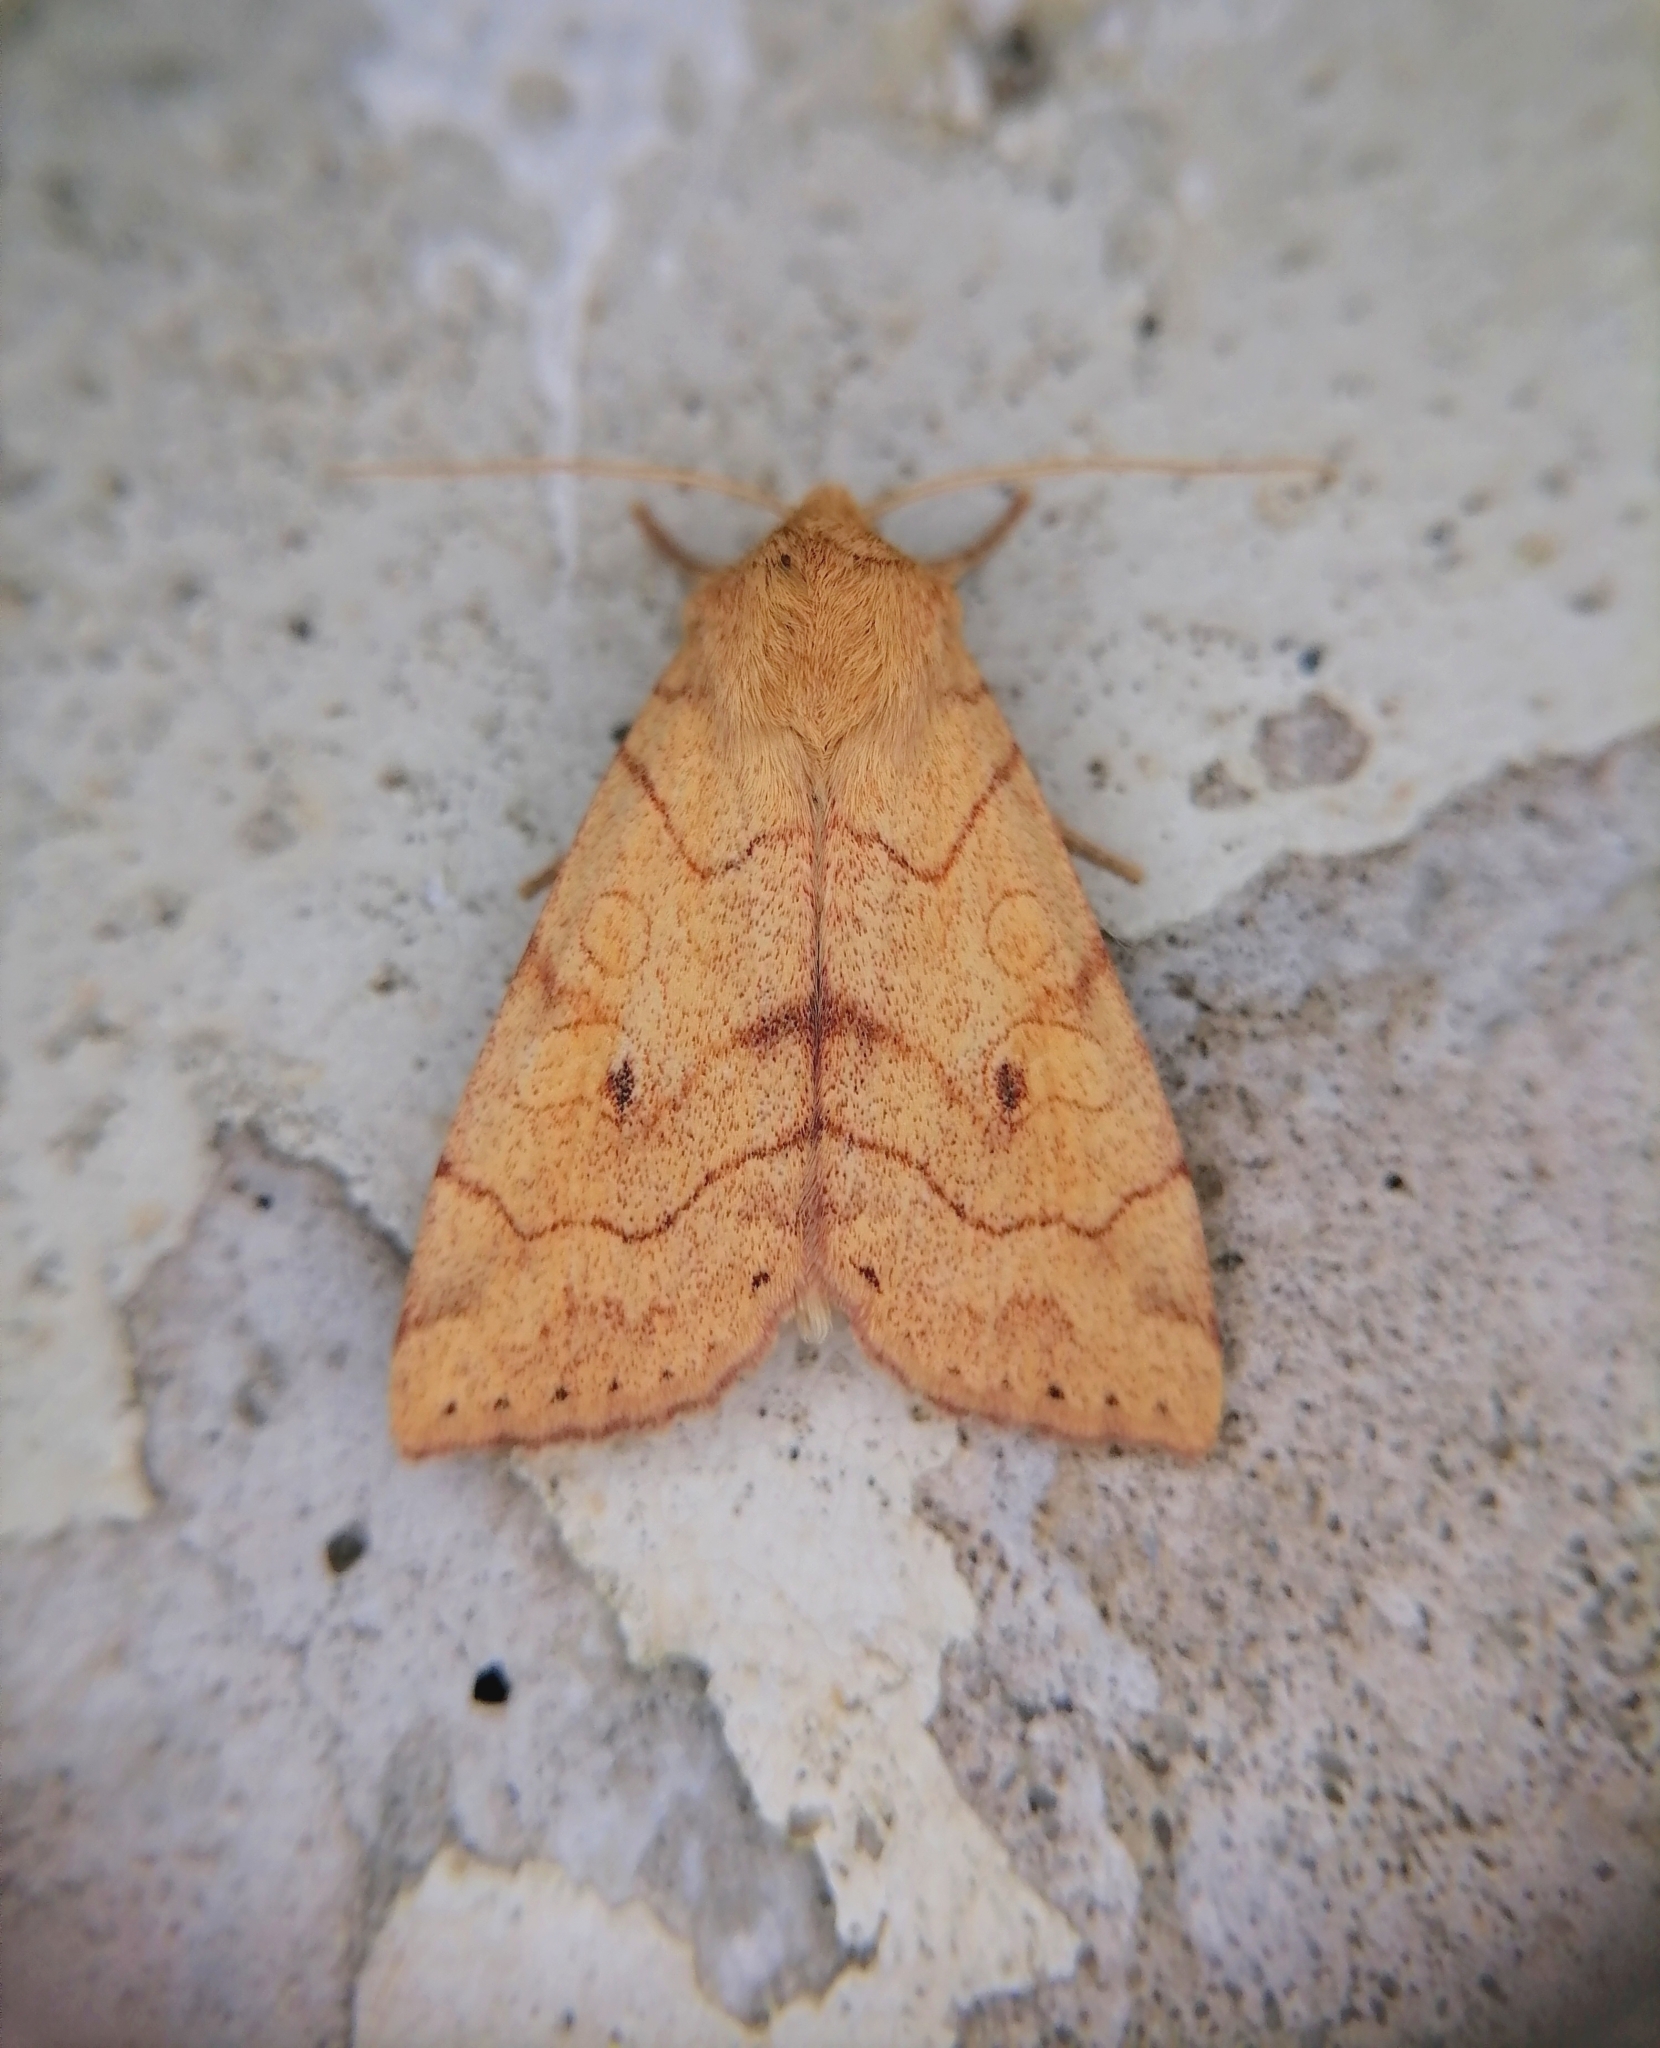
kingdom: Animalia
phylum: Arthropoda
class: Insecta
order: Lepidoptera
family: Noctuidae
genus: Enargia
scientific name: Enargia paleacea
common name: Angle-striped sallow
